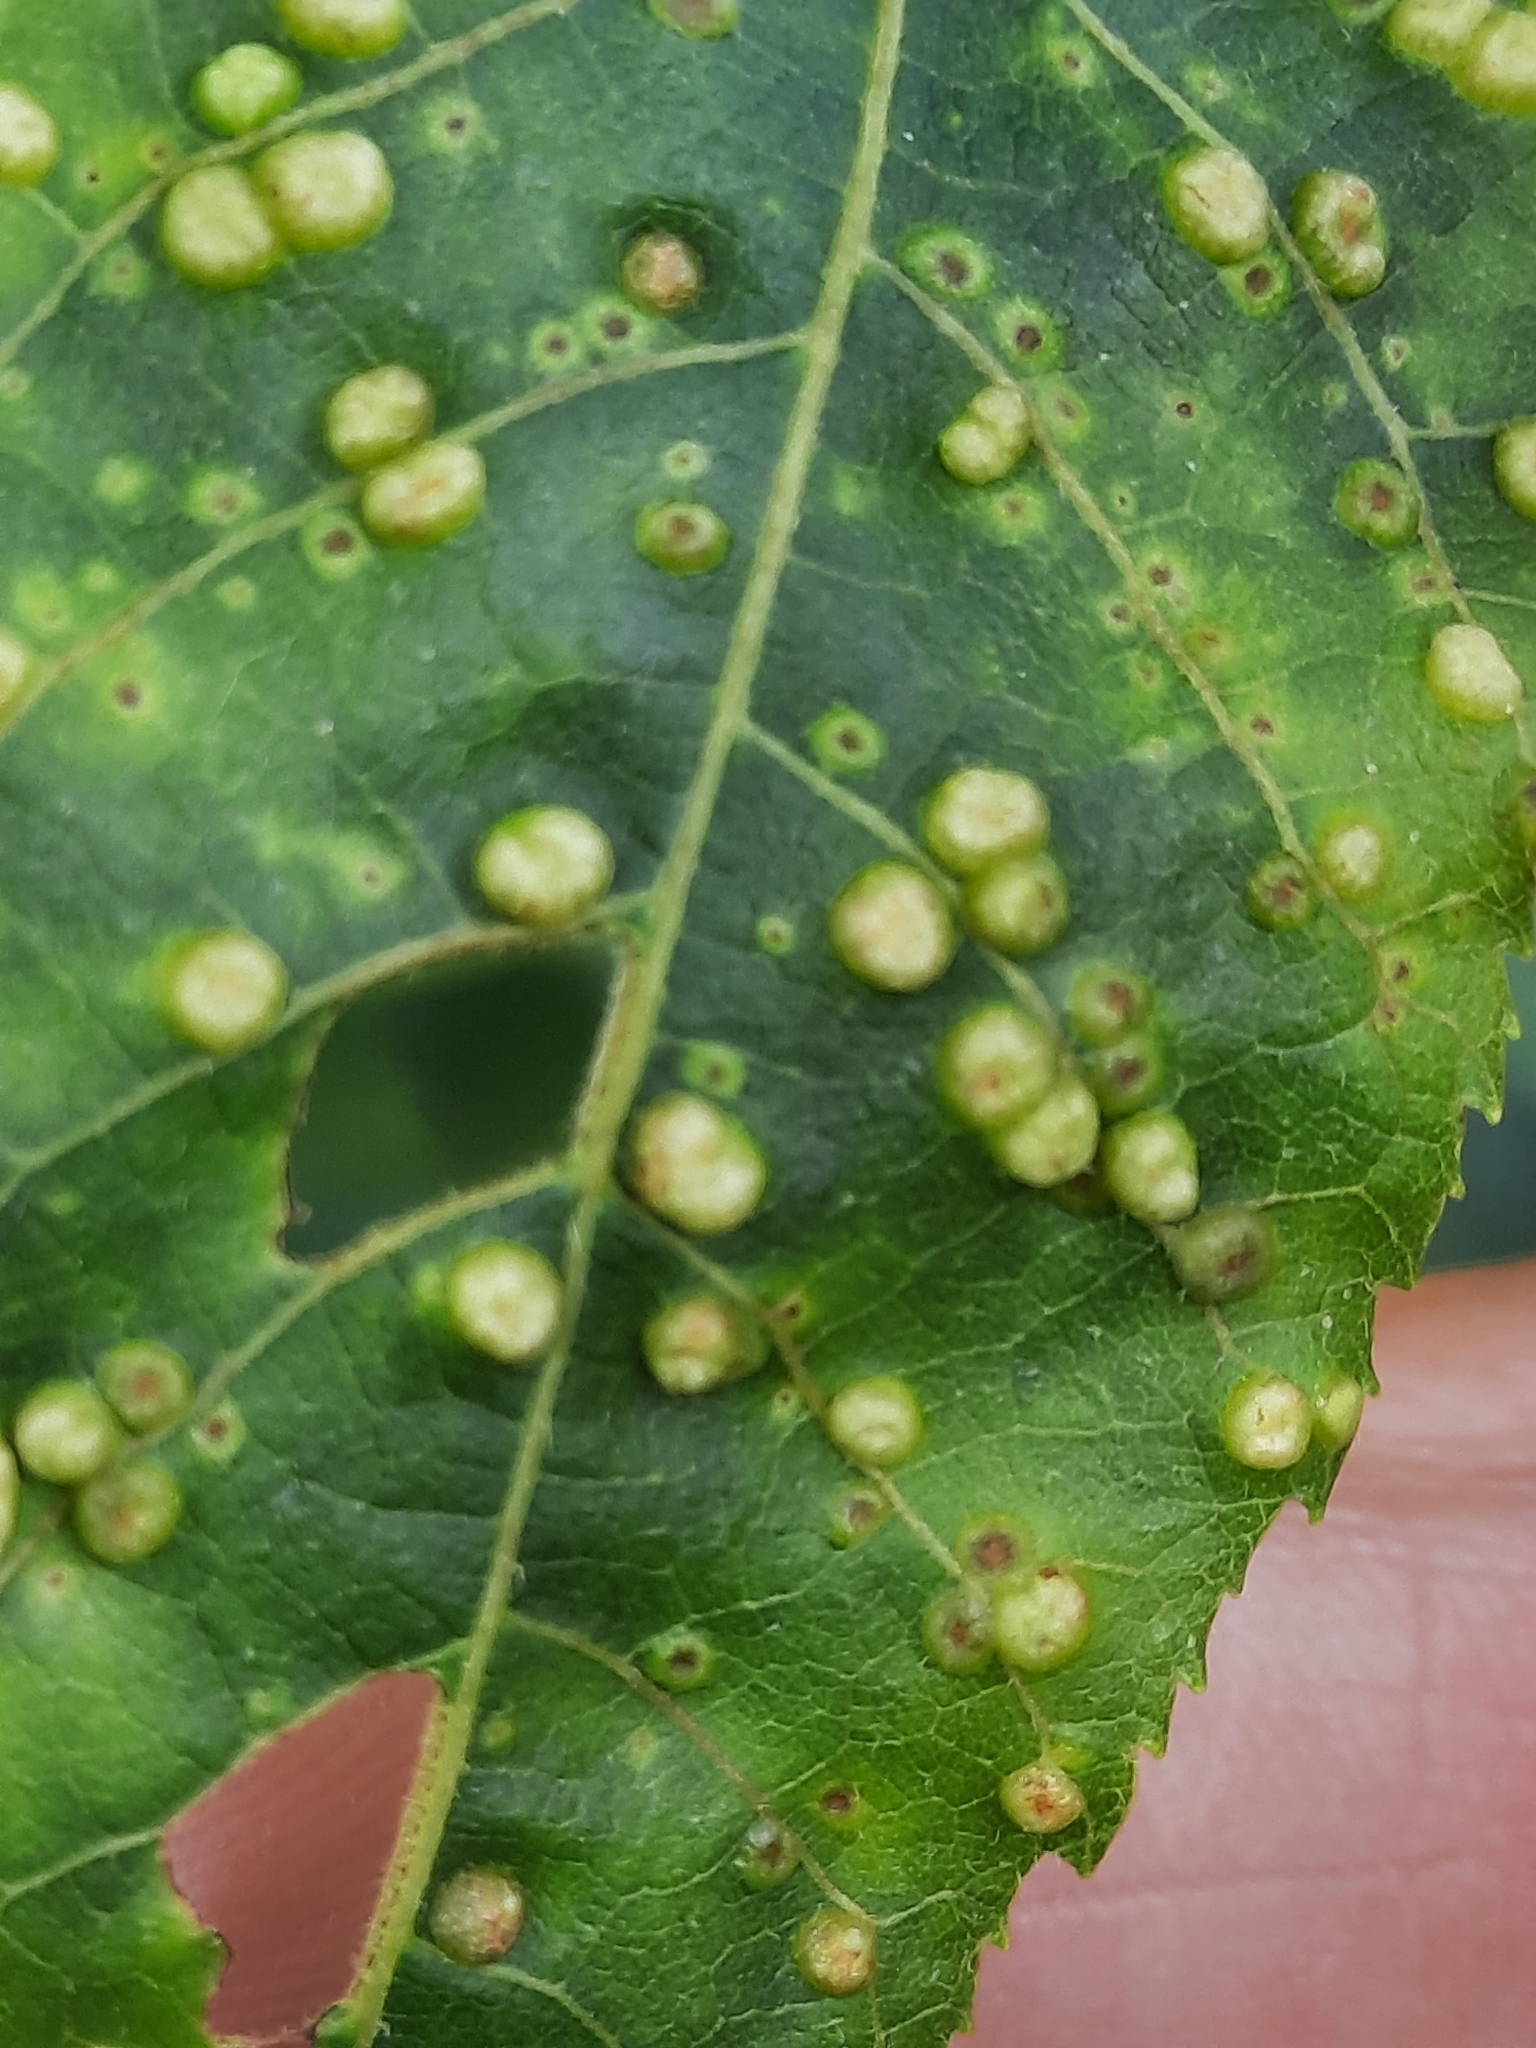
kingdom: Animalia
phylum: Arthropoda
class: Insecta
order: Hemiptera
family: Phylloxeridae
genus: Phylloxera
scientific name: Phylloxera caryae-semen
